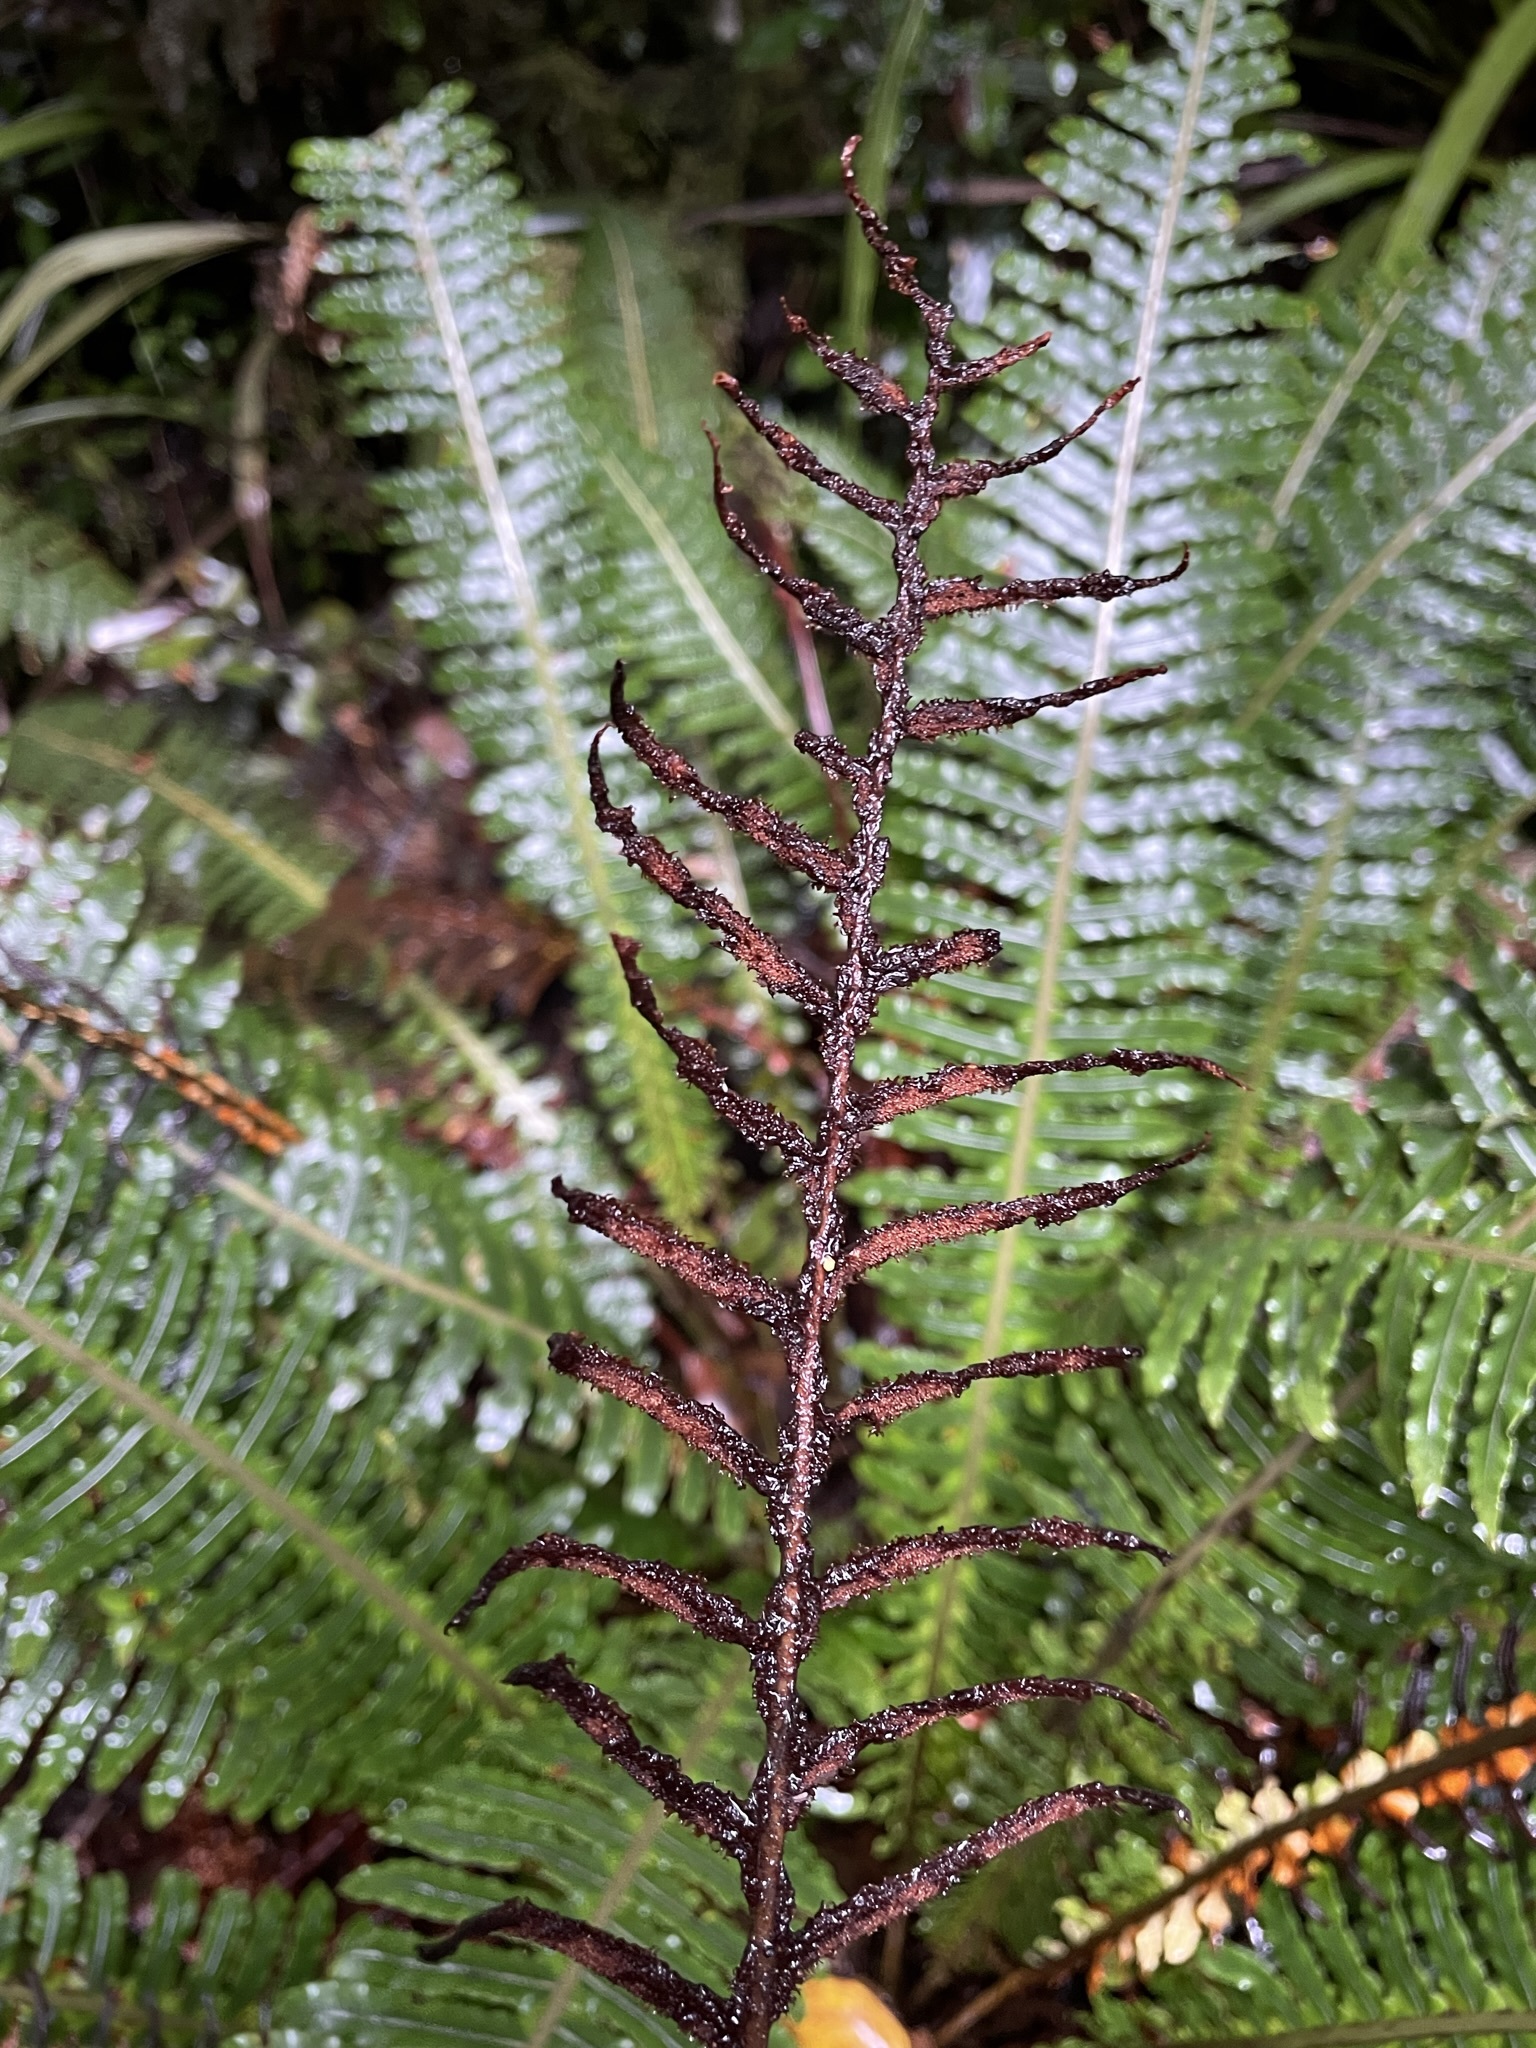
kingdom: Plantae
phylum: Tracheophyta
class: Polypodiopsida
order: Polypodiales
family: Blechnaceae
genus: Lomaria
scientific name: Lomaria discolor
